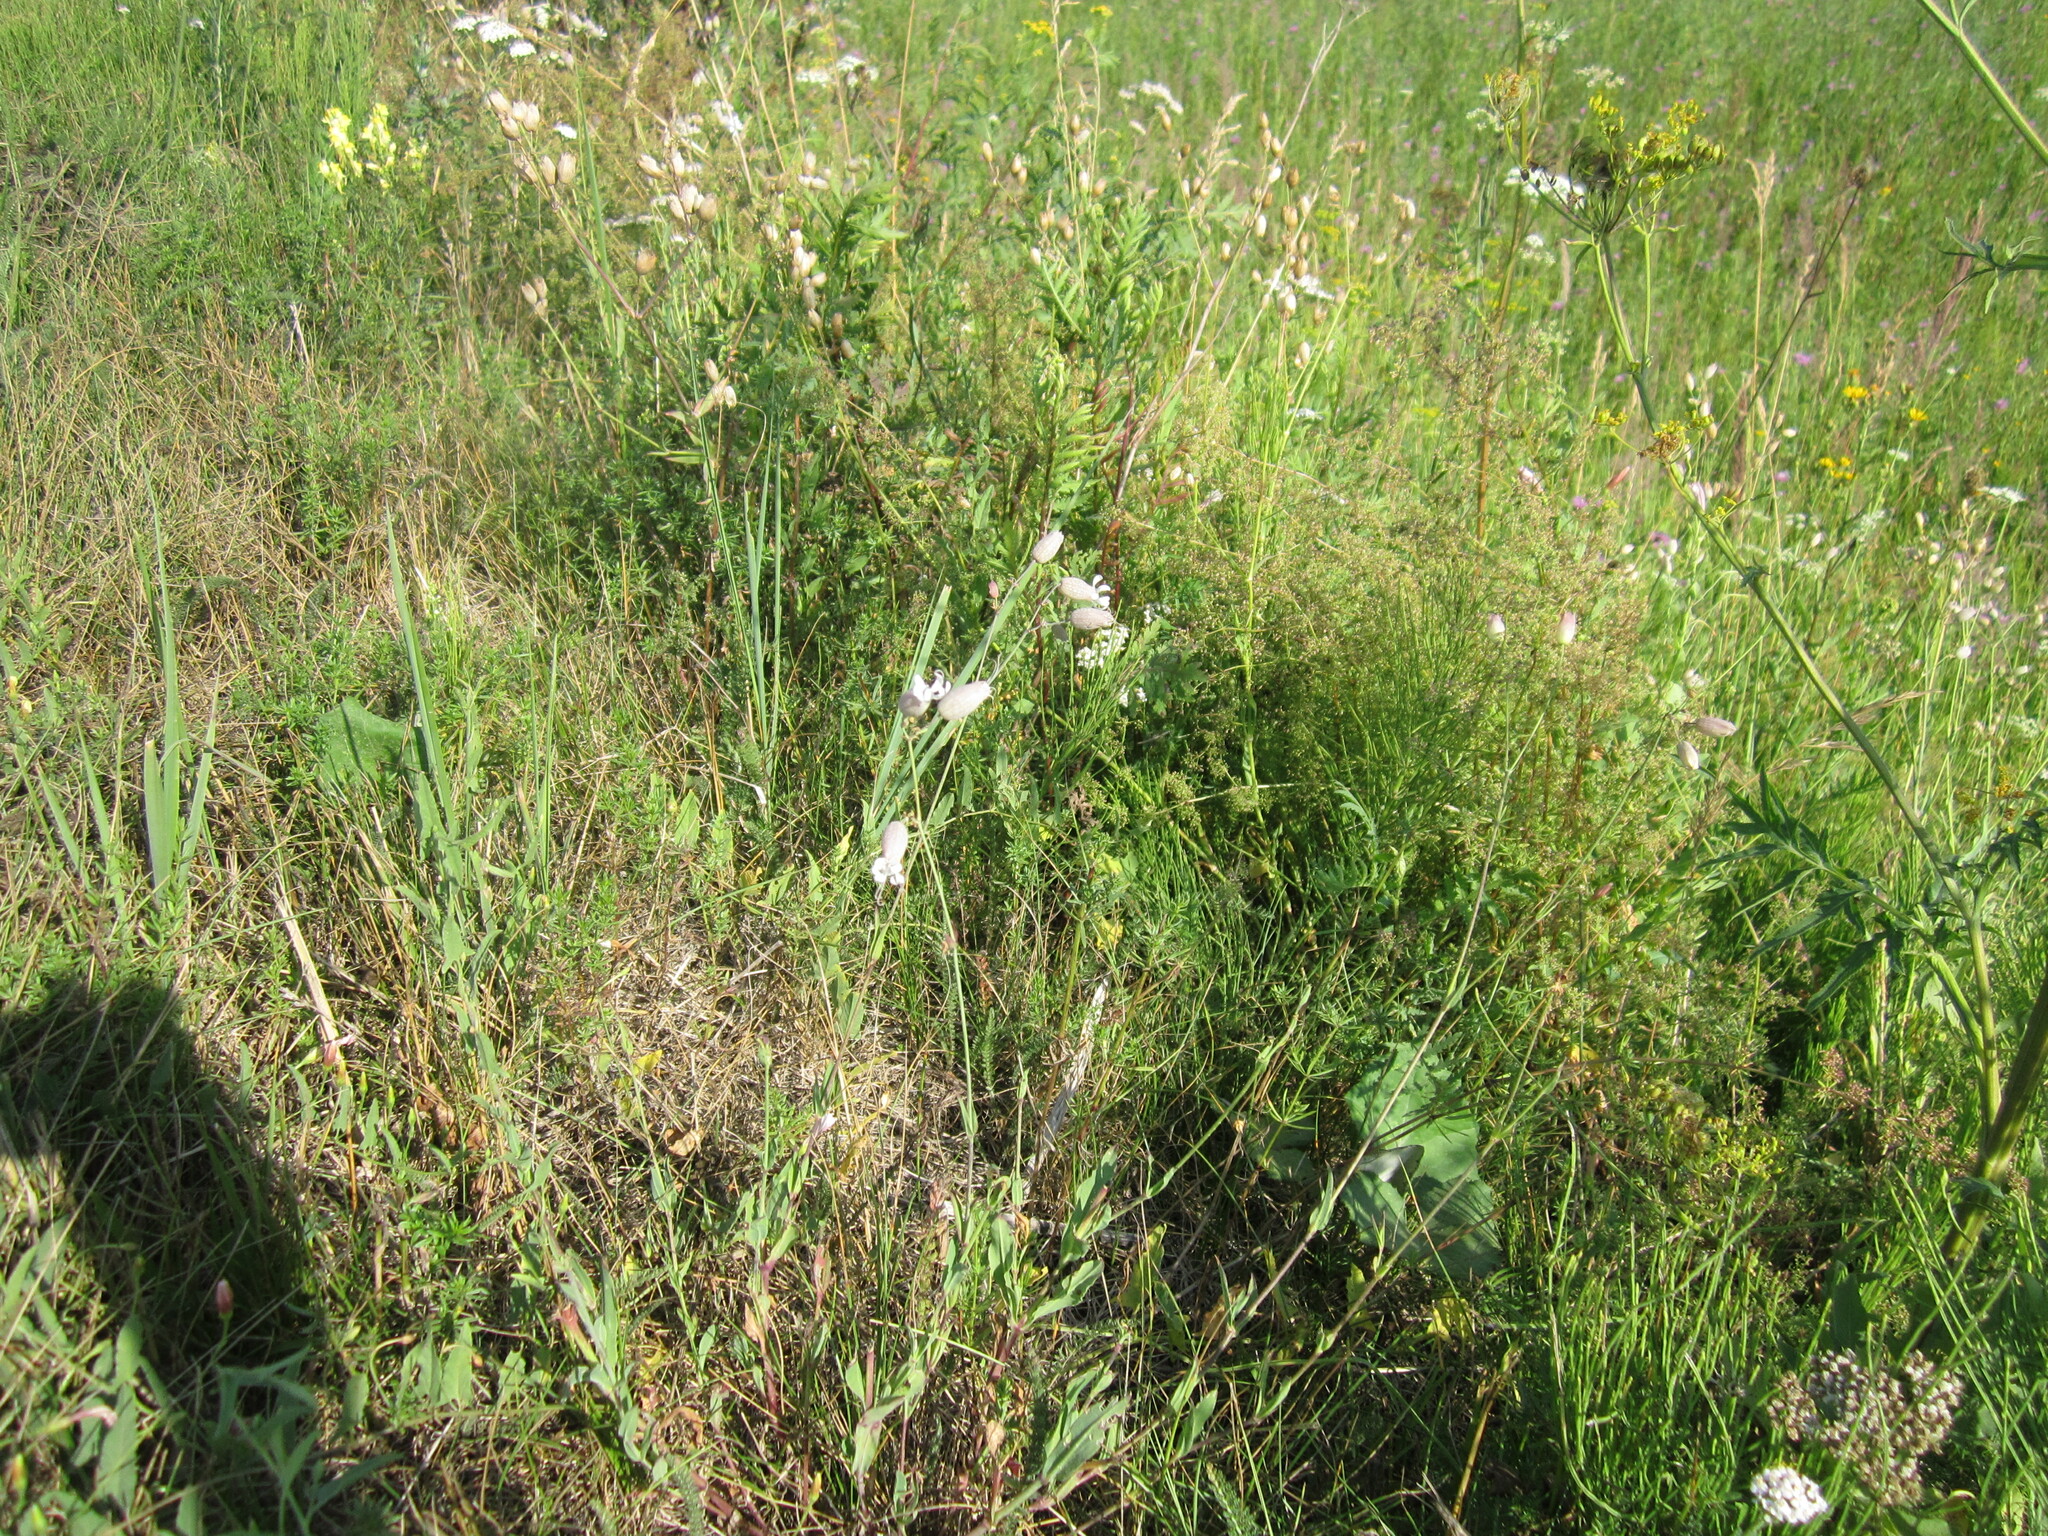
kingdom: Plantae
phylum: Tracheophyta
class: Magnoliopsida
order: Caryophyllales
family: Caryophyllaceae
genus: Silene
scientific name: Silene vulgaris
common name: Bladder campion
